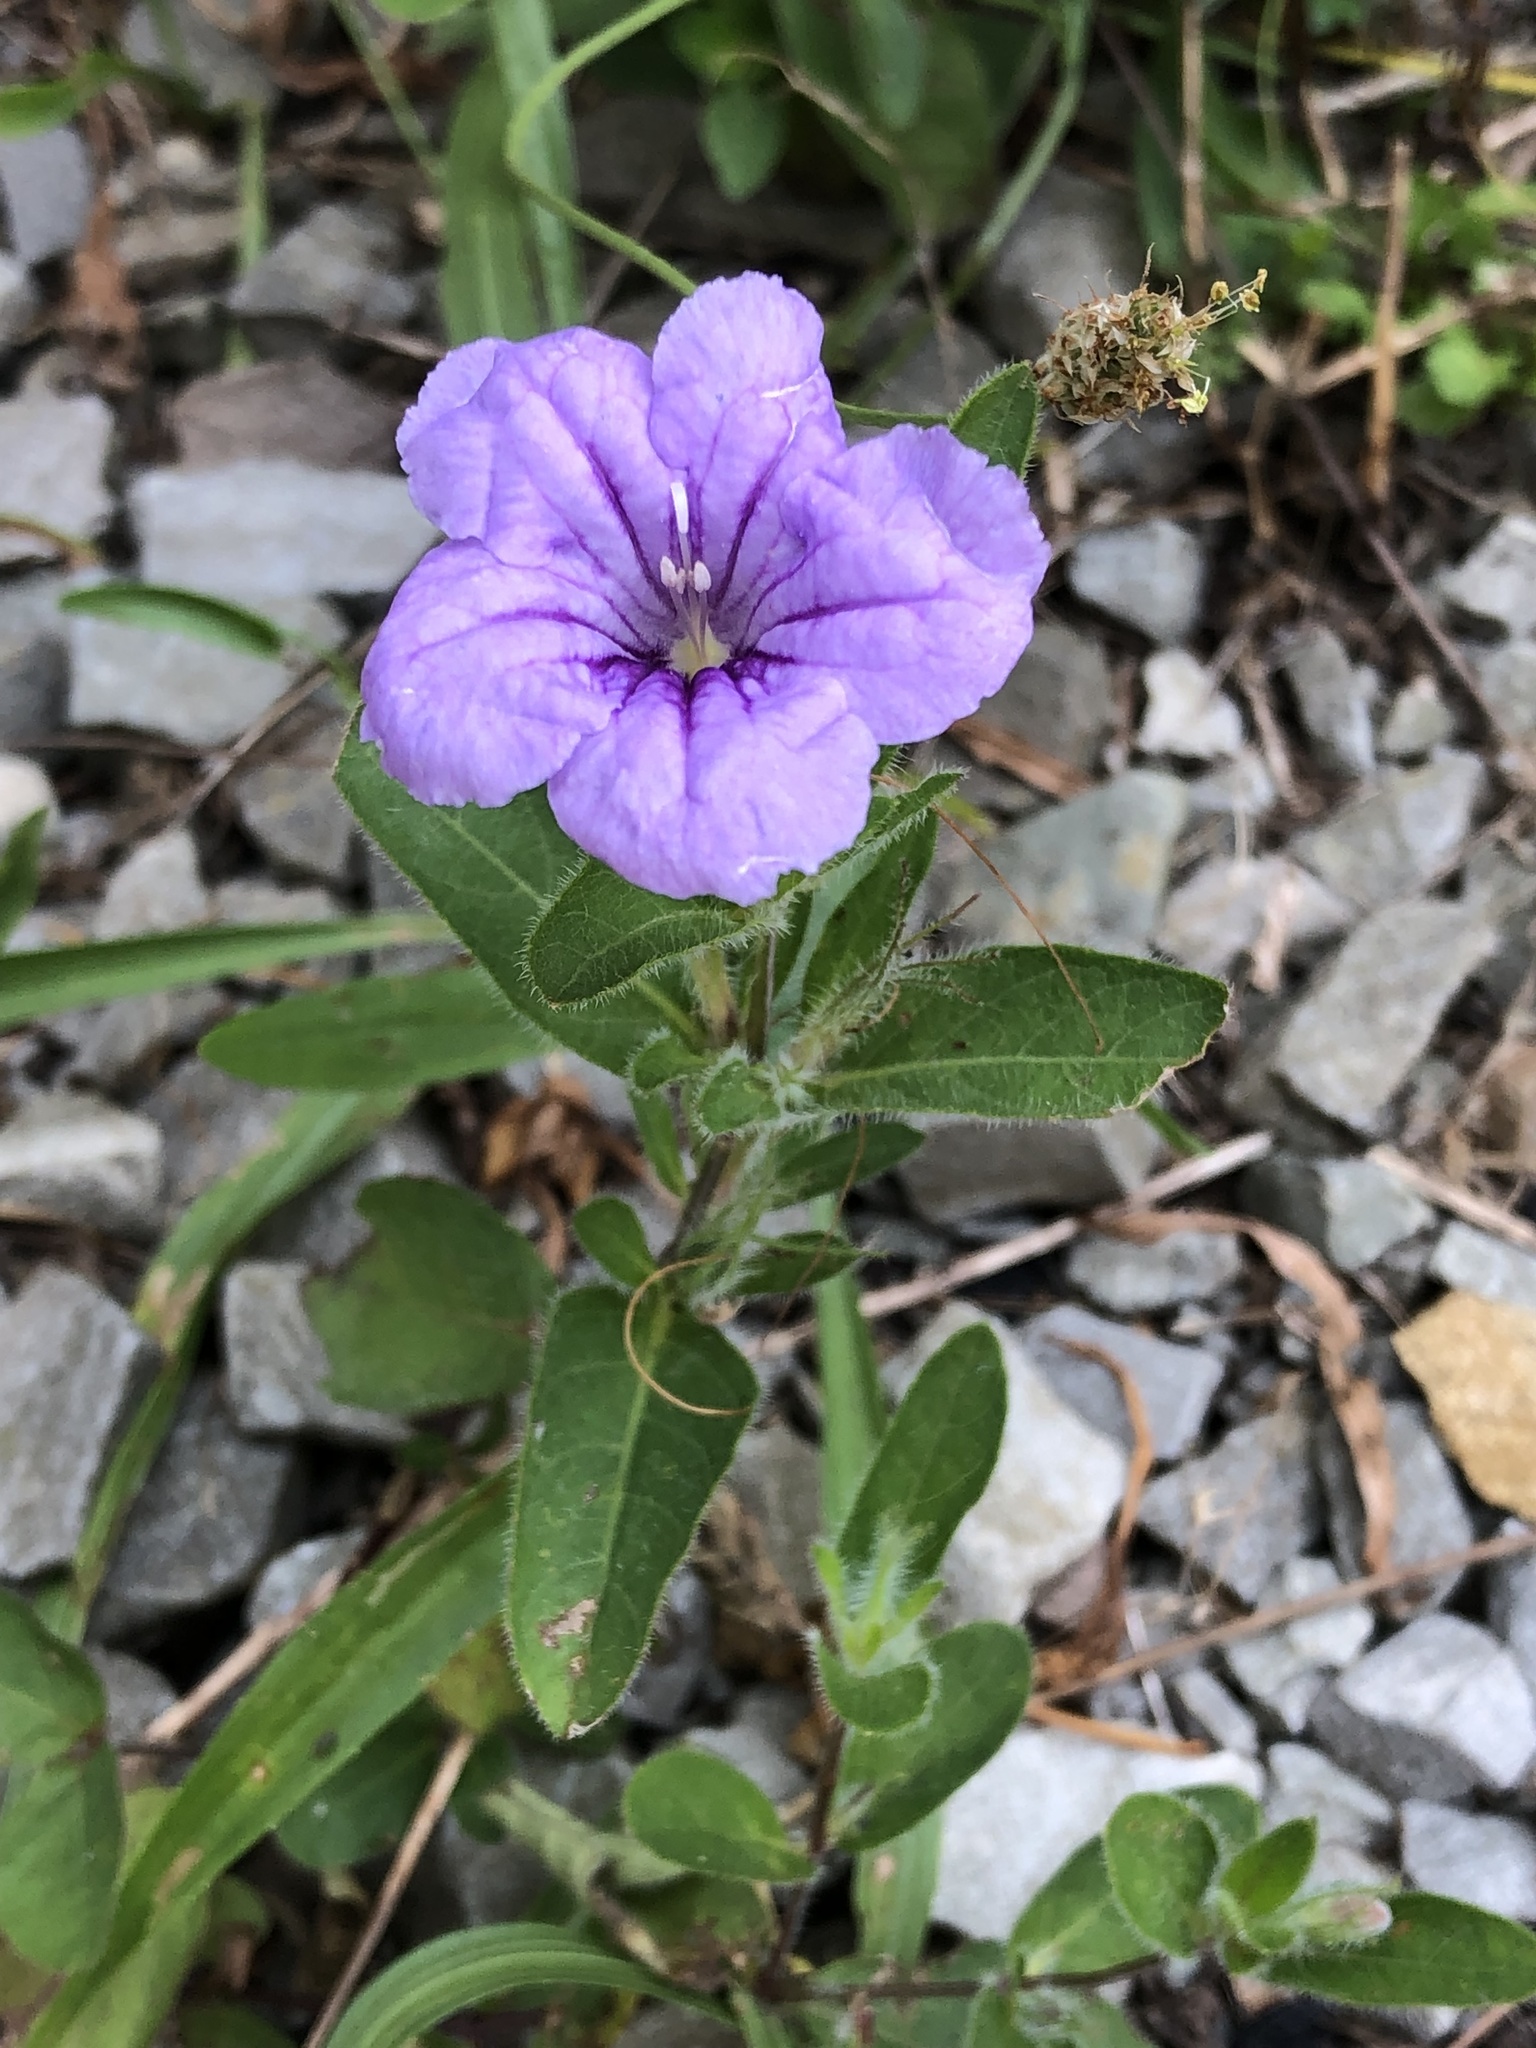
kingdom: Plantae
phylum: Tracheophyta
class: Magnoliopsida
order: Lamiales
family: Acanthaceae
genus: Ruellia
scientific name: Ruellia humilis
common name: Fringe-leaf ruellia
